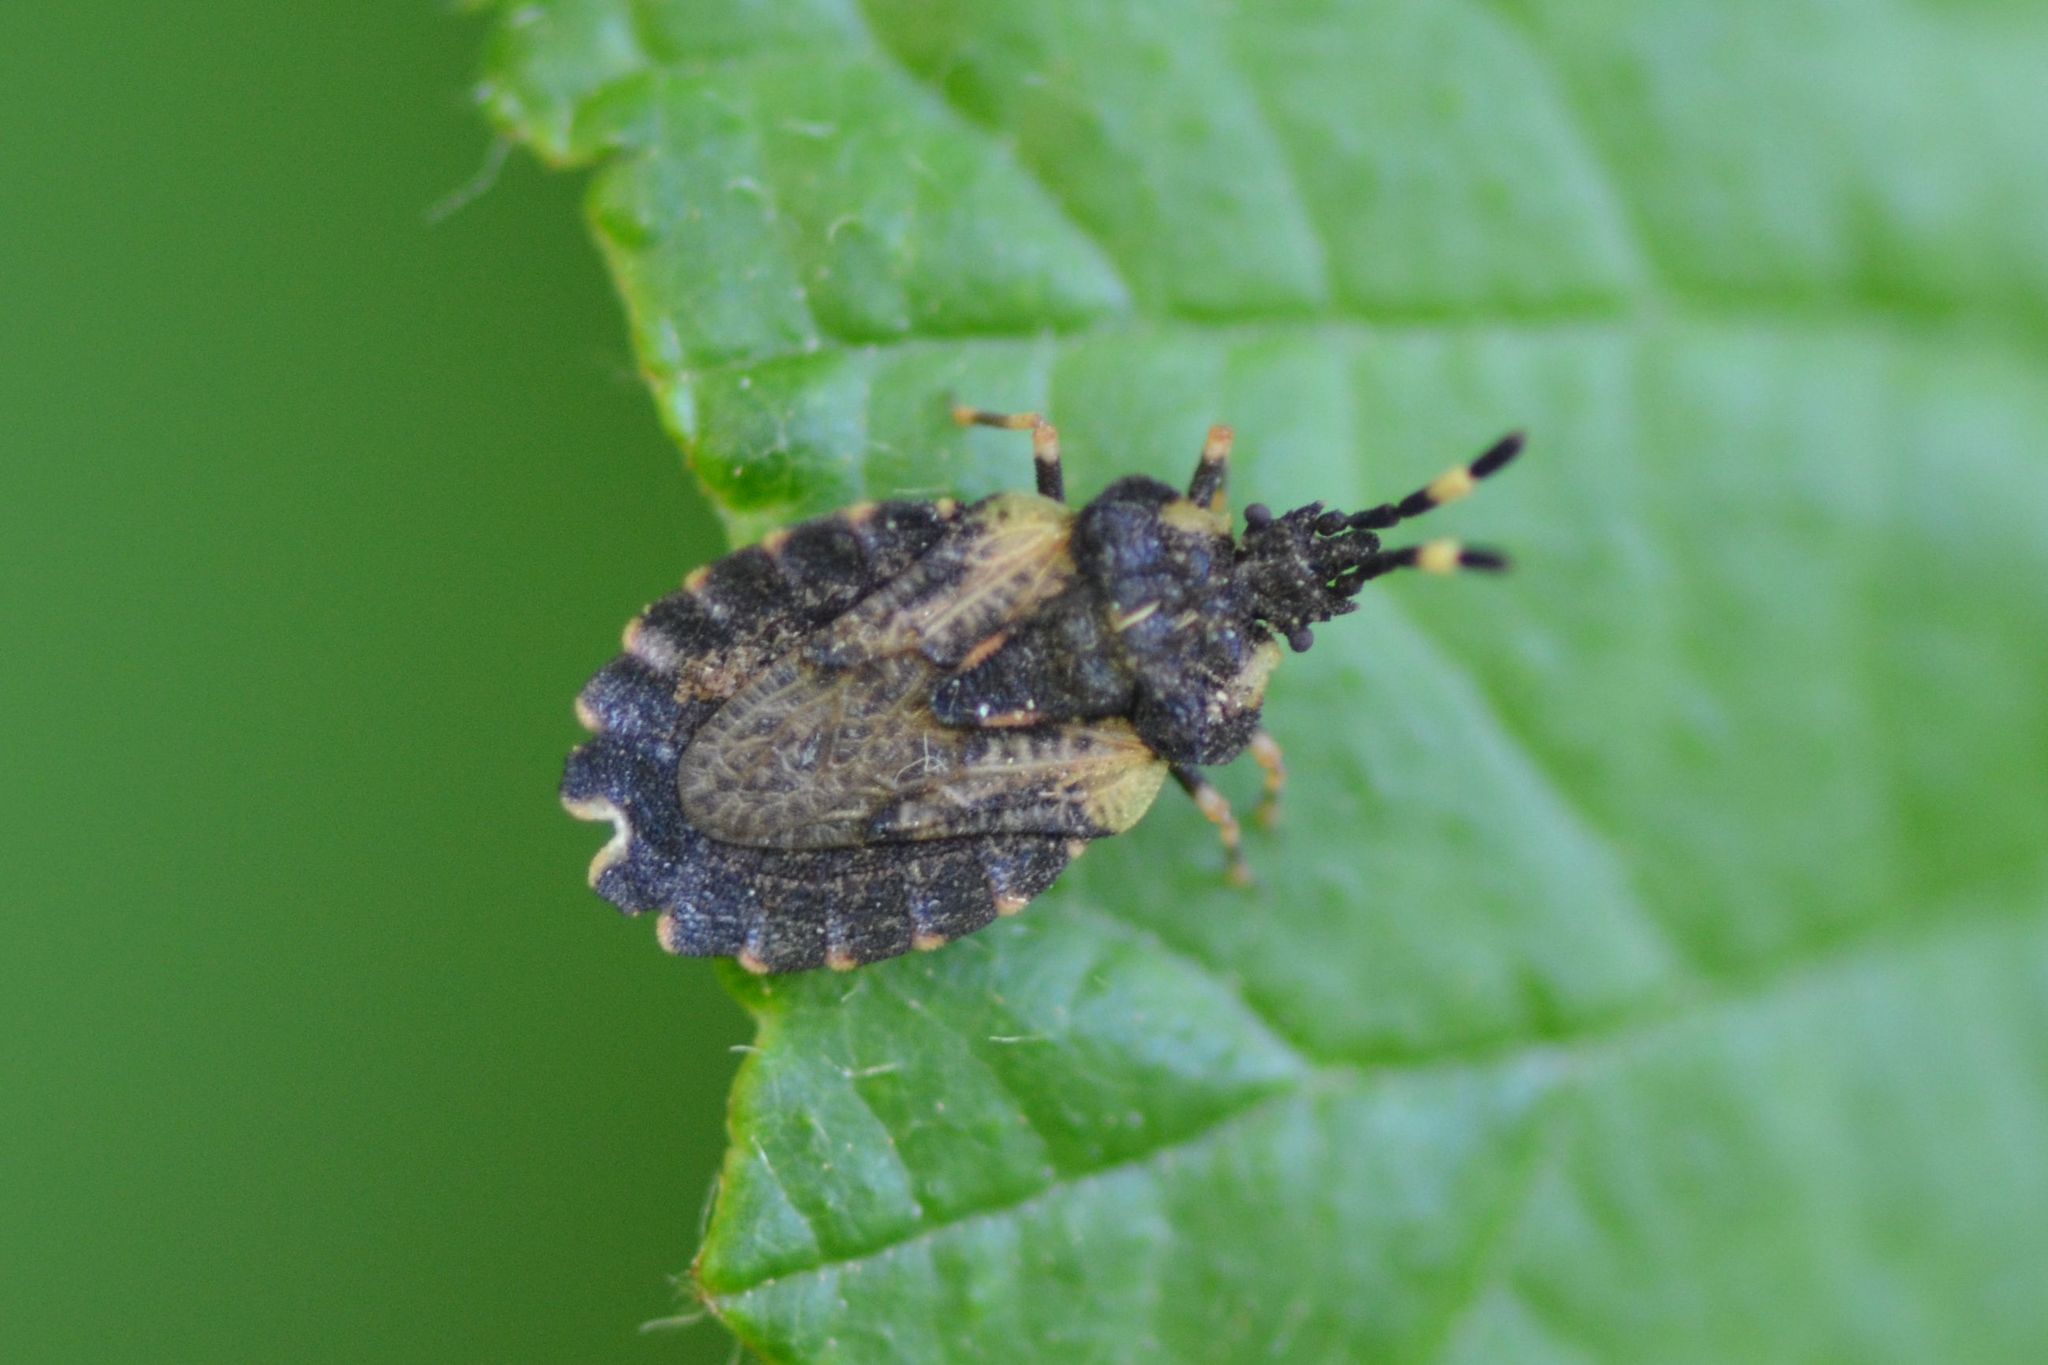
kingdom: Animalia
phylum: Arthropoda
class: Insecta
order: Hemiptera
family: Aradidae
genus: Aradus
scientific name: Aradus versicolor
